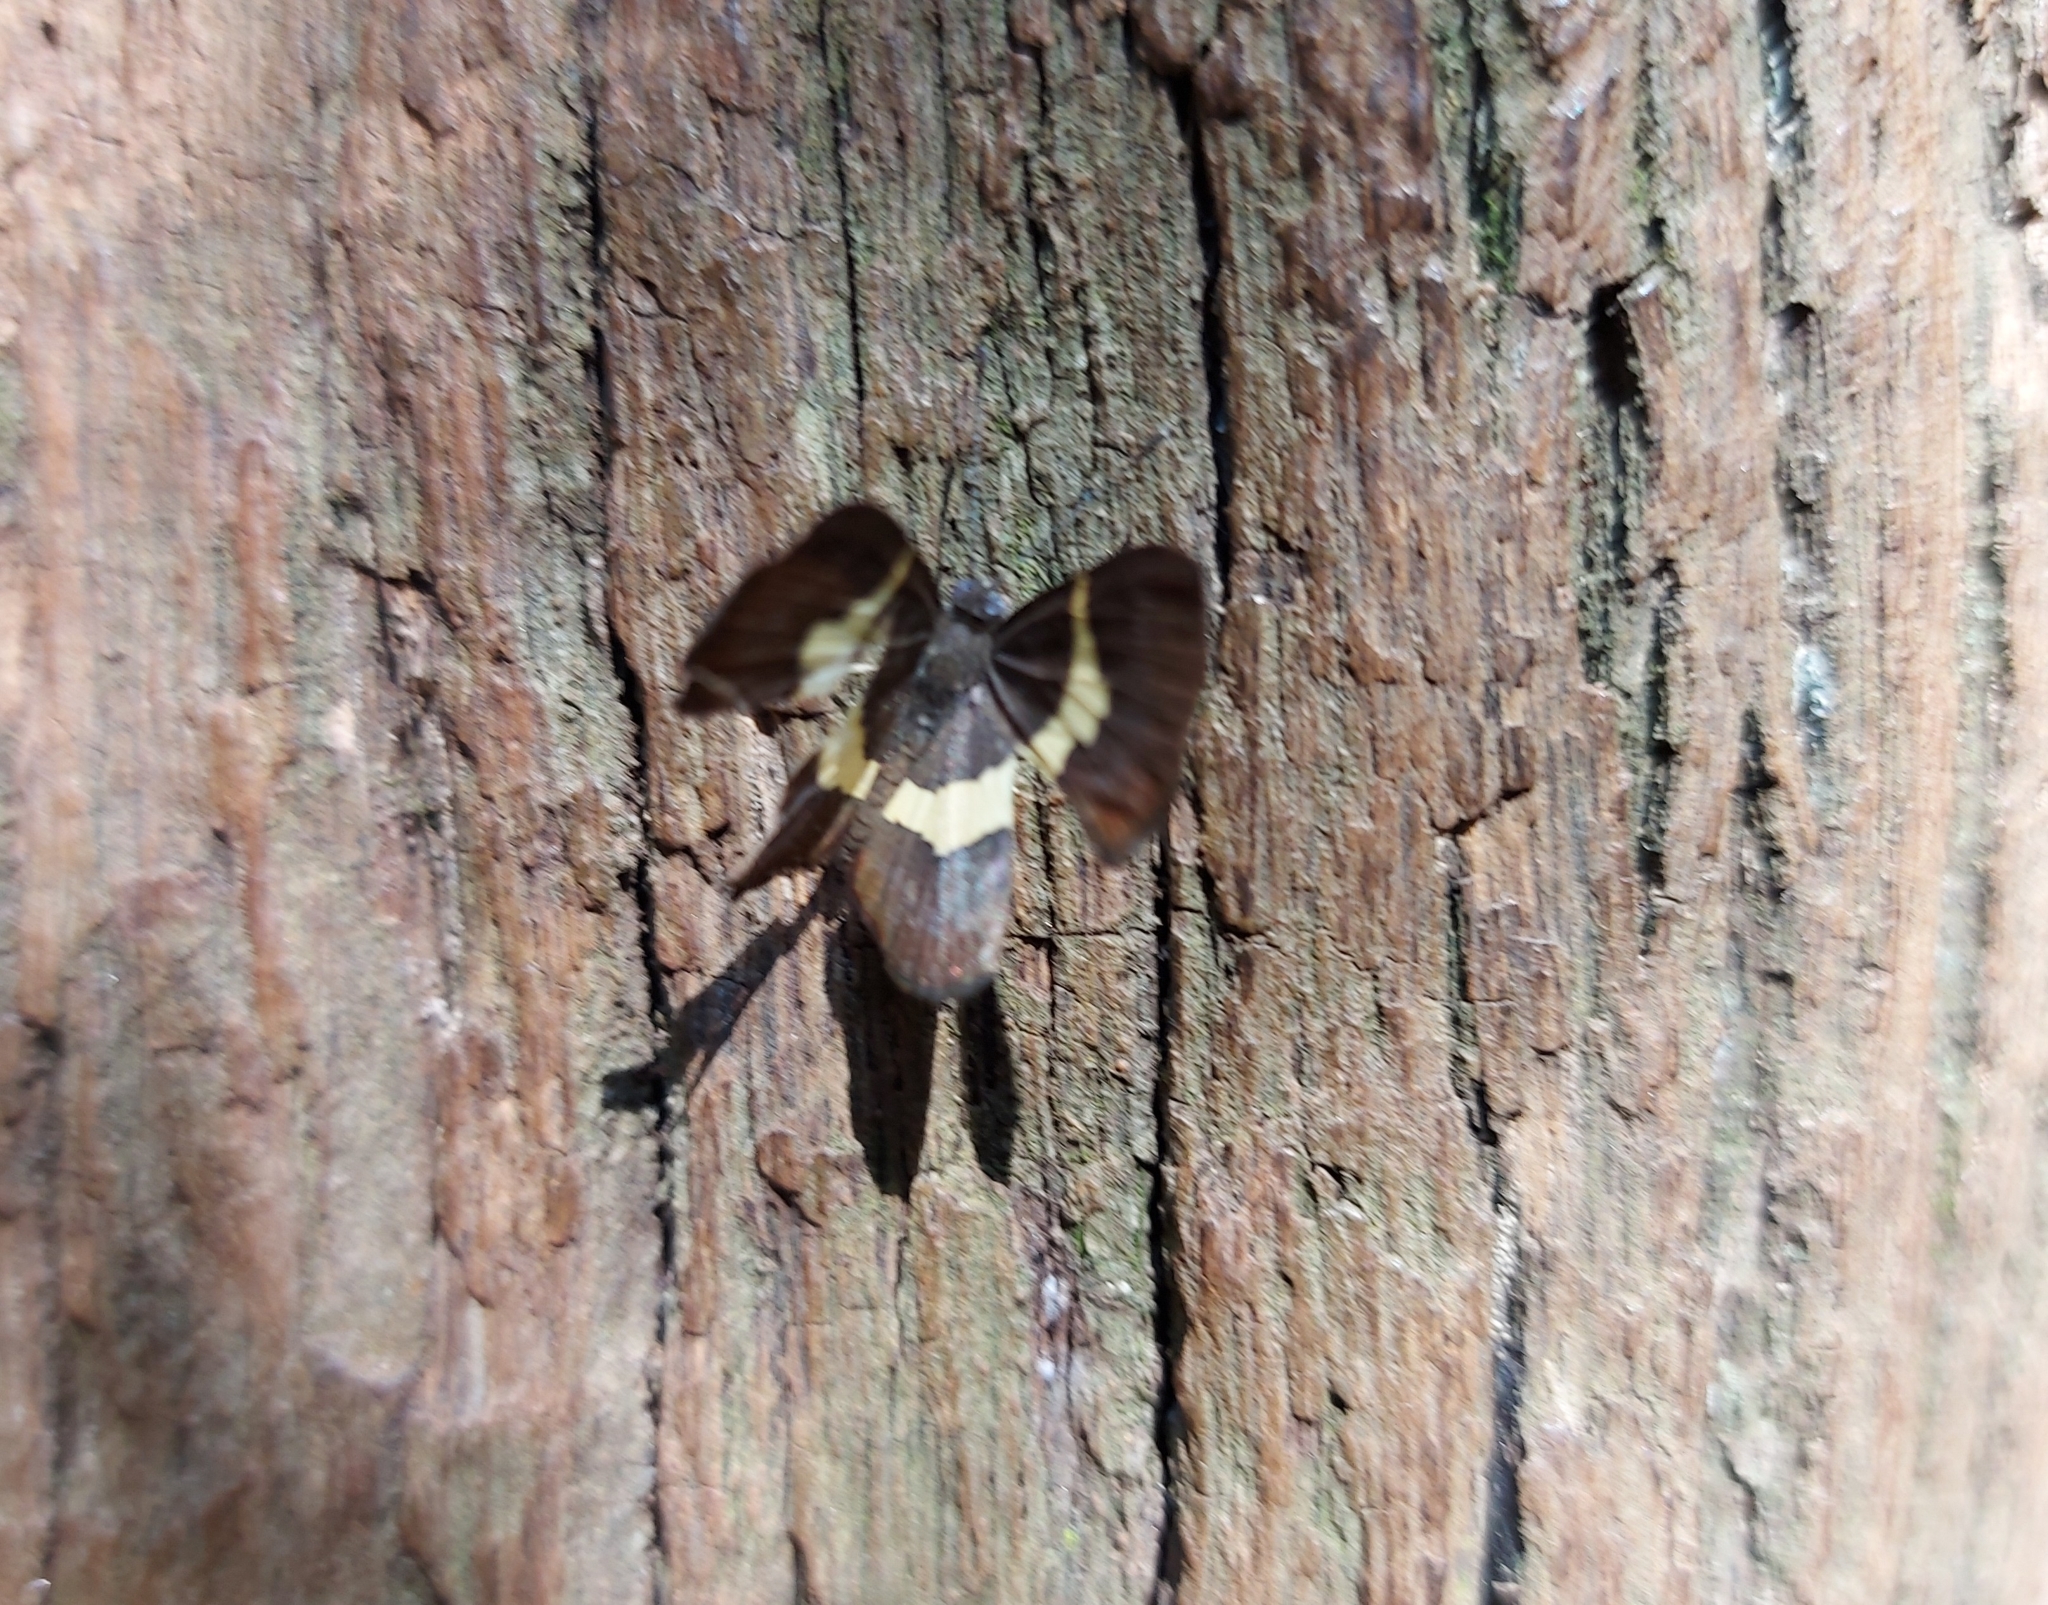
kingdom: Animalia
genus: Baeotis
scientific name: Baeotis johannae
